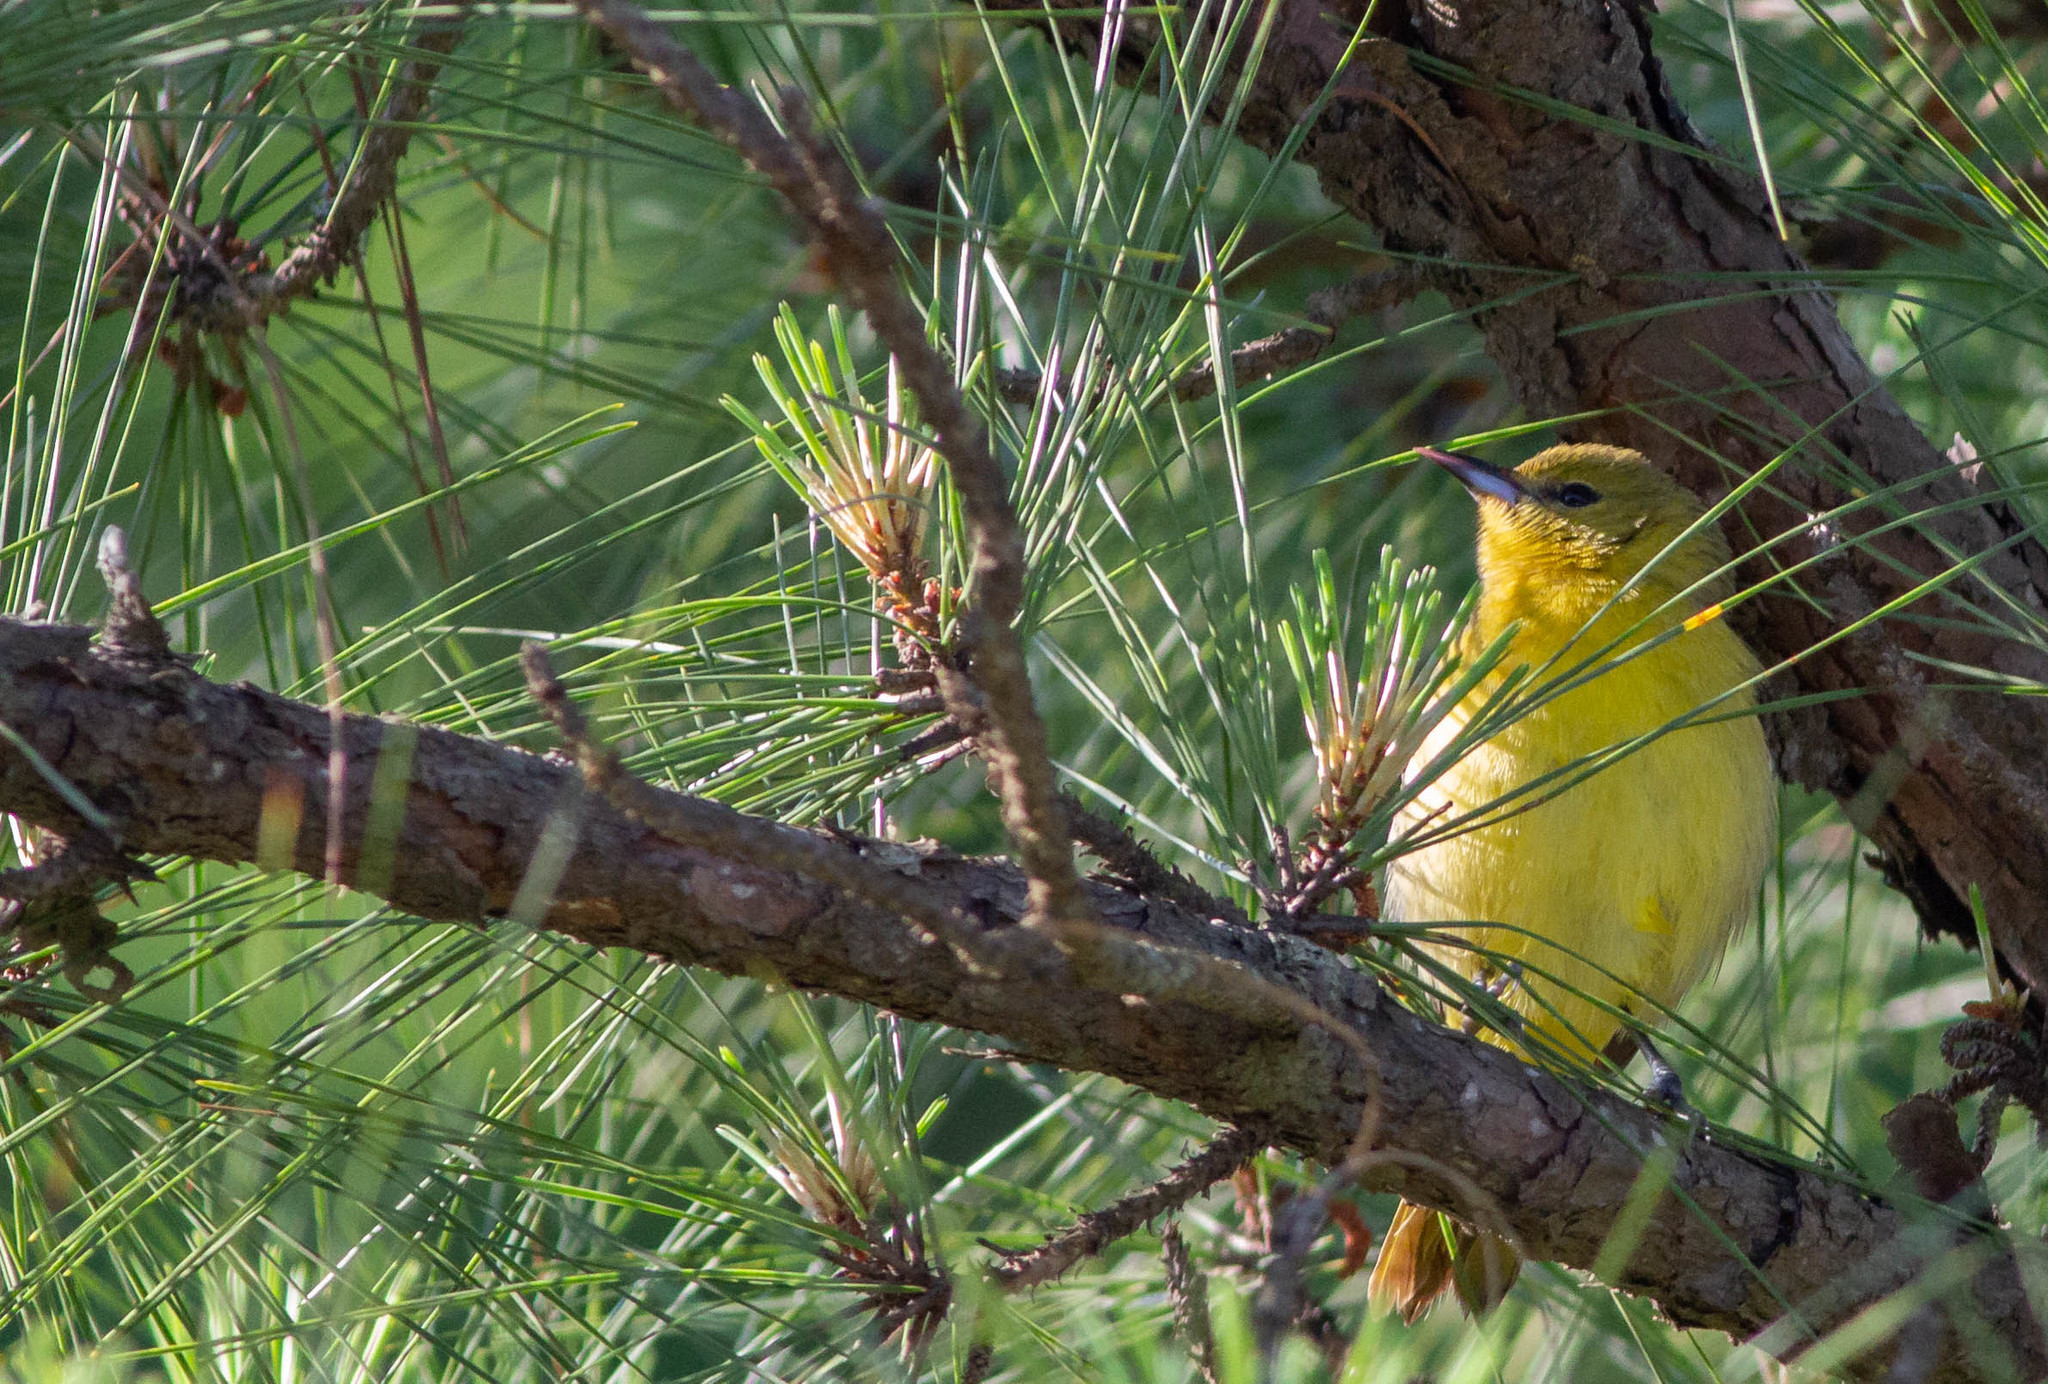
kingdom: Animalia
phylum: Chordata
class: Aves
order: Passeriformes
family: Icteridae
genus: Icterus
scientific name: Icterus spurius
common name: Orchard oriole
